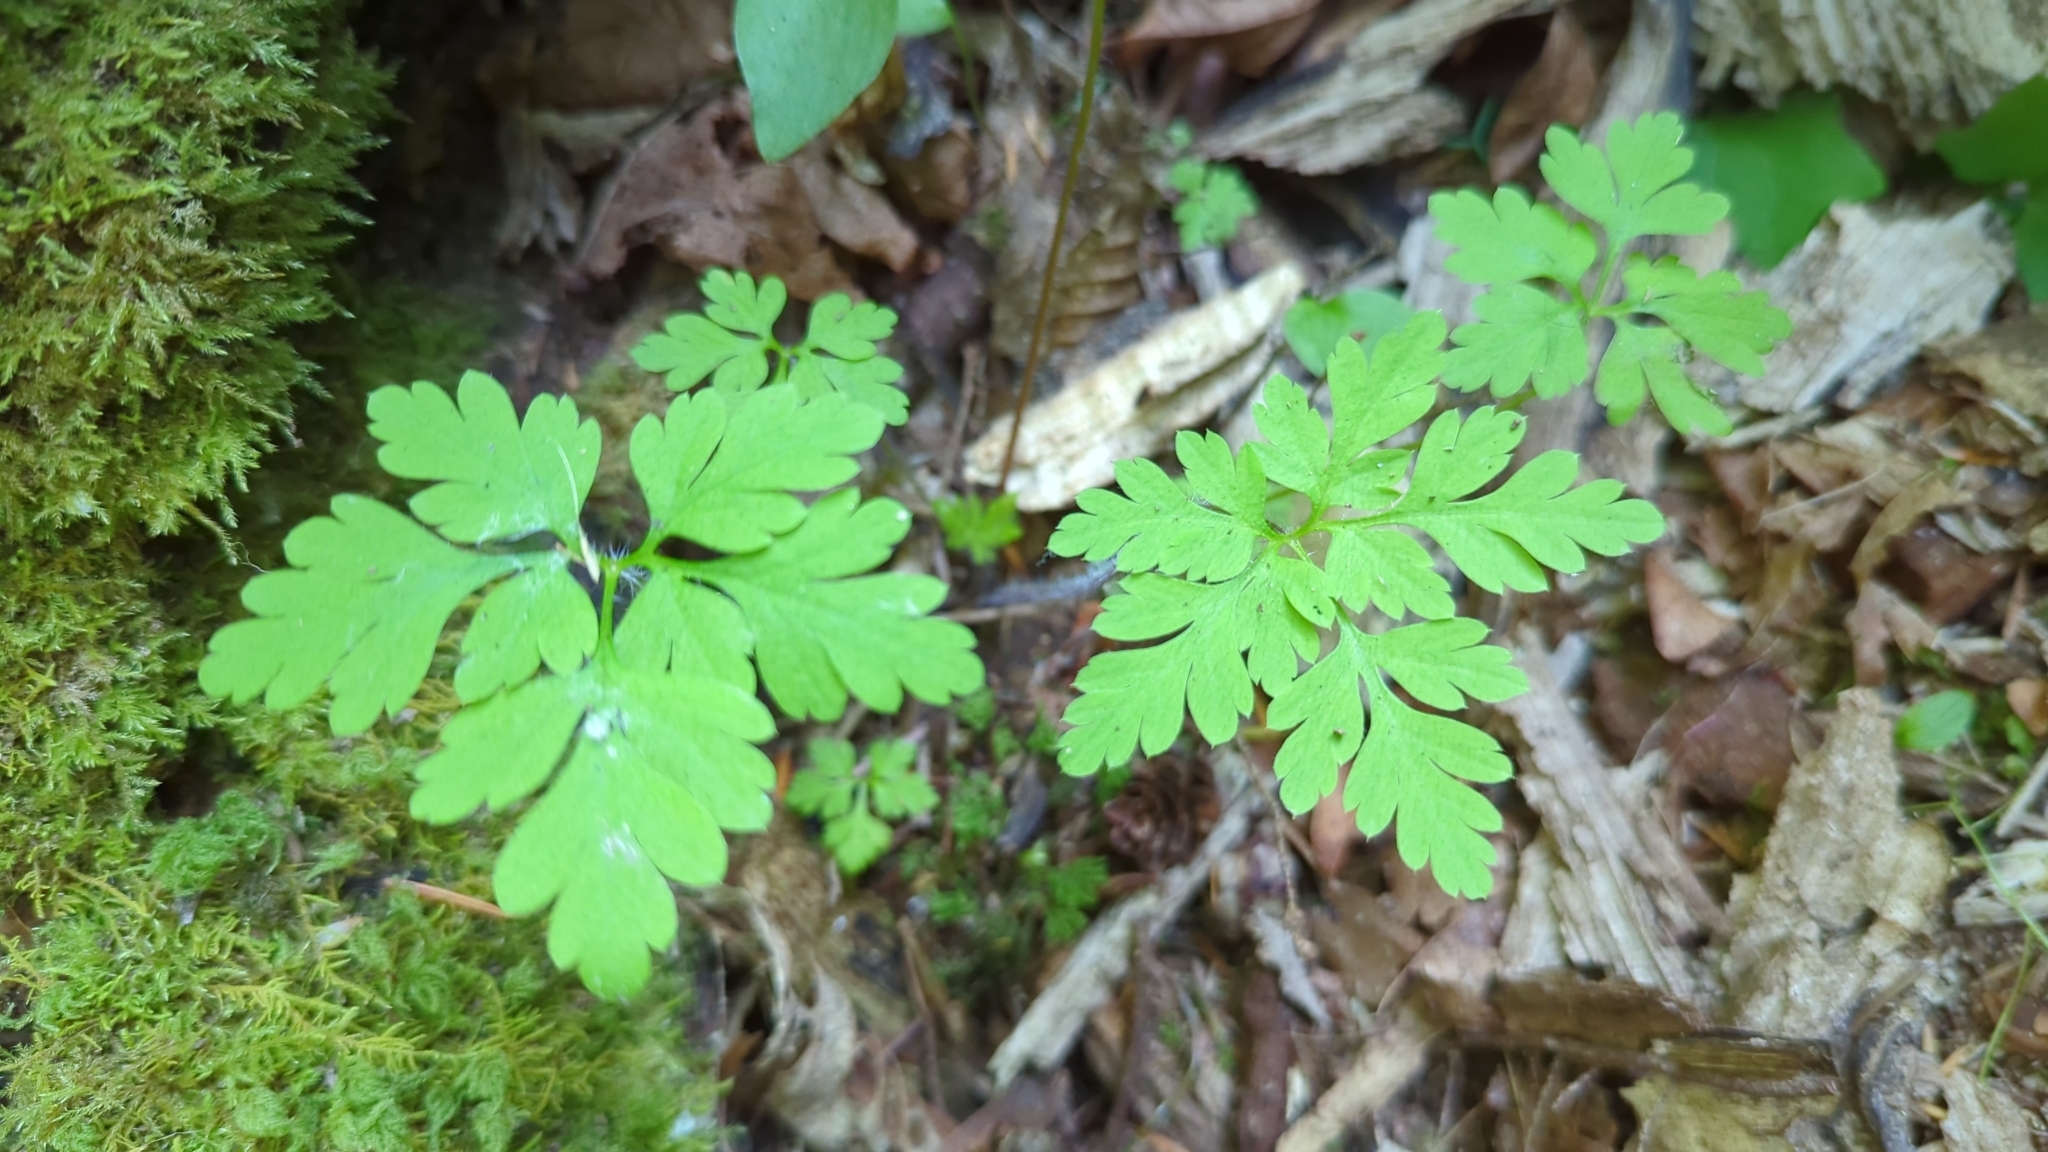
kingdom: Plantae
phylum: Tracheophyta
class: Magnoliopsida
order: Geraniales
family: Geraniaceae
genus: Geranium
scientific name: Geranium robertianum
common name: Herb-robert
